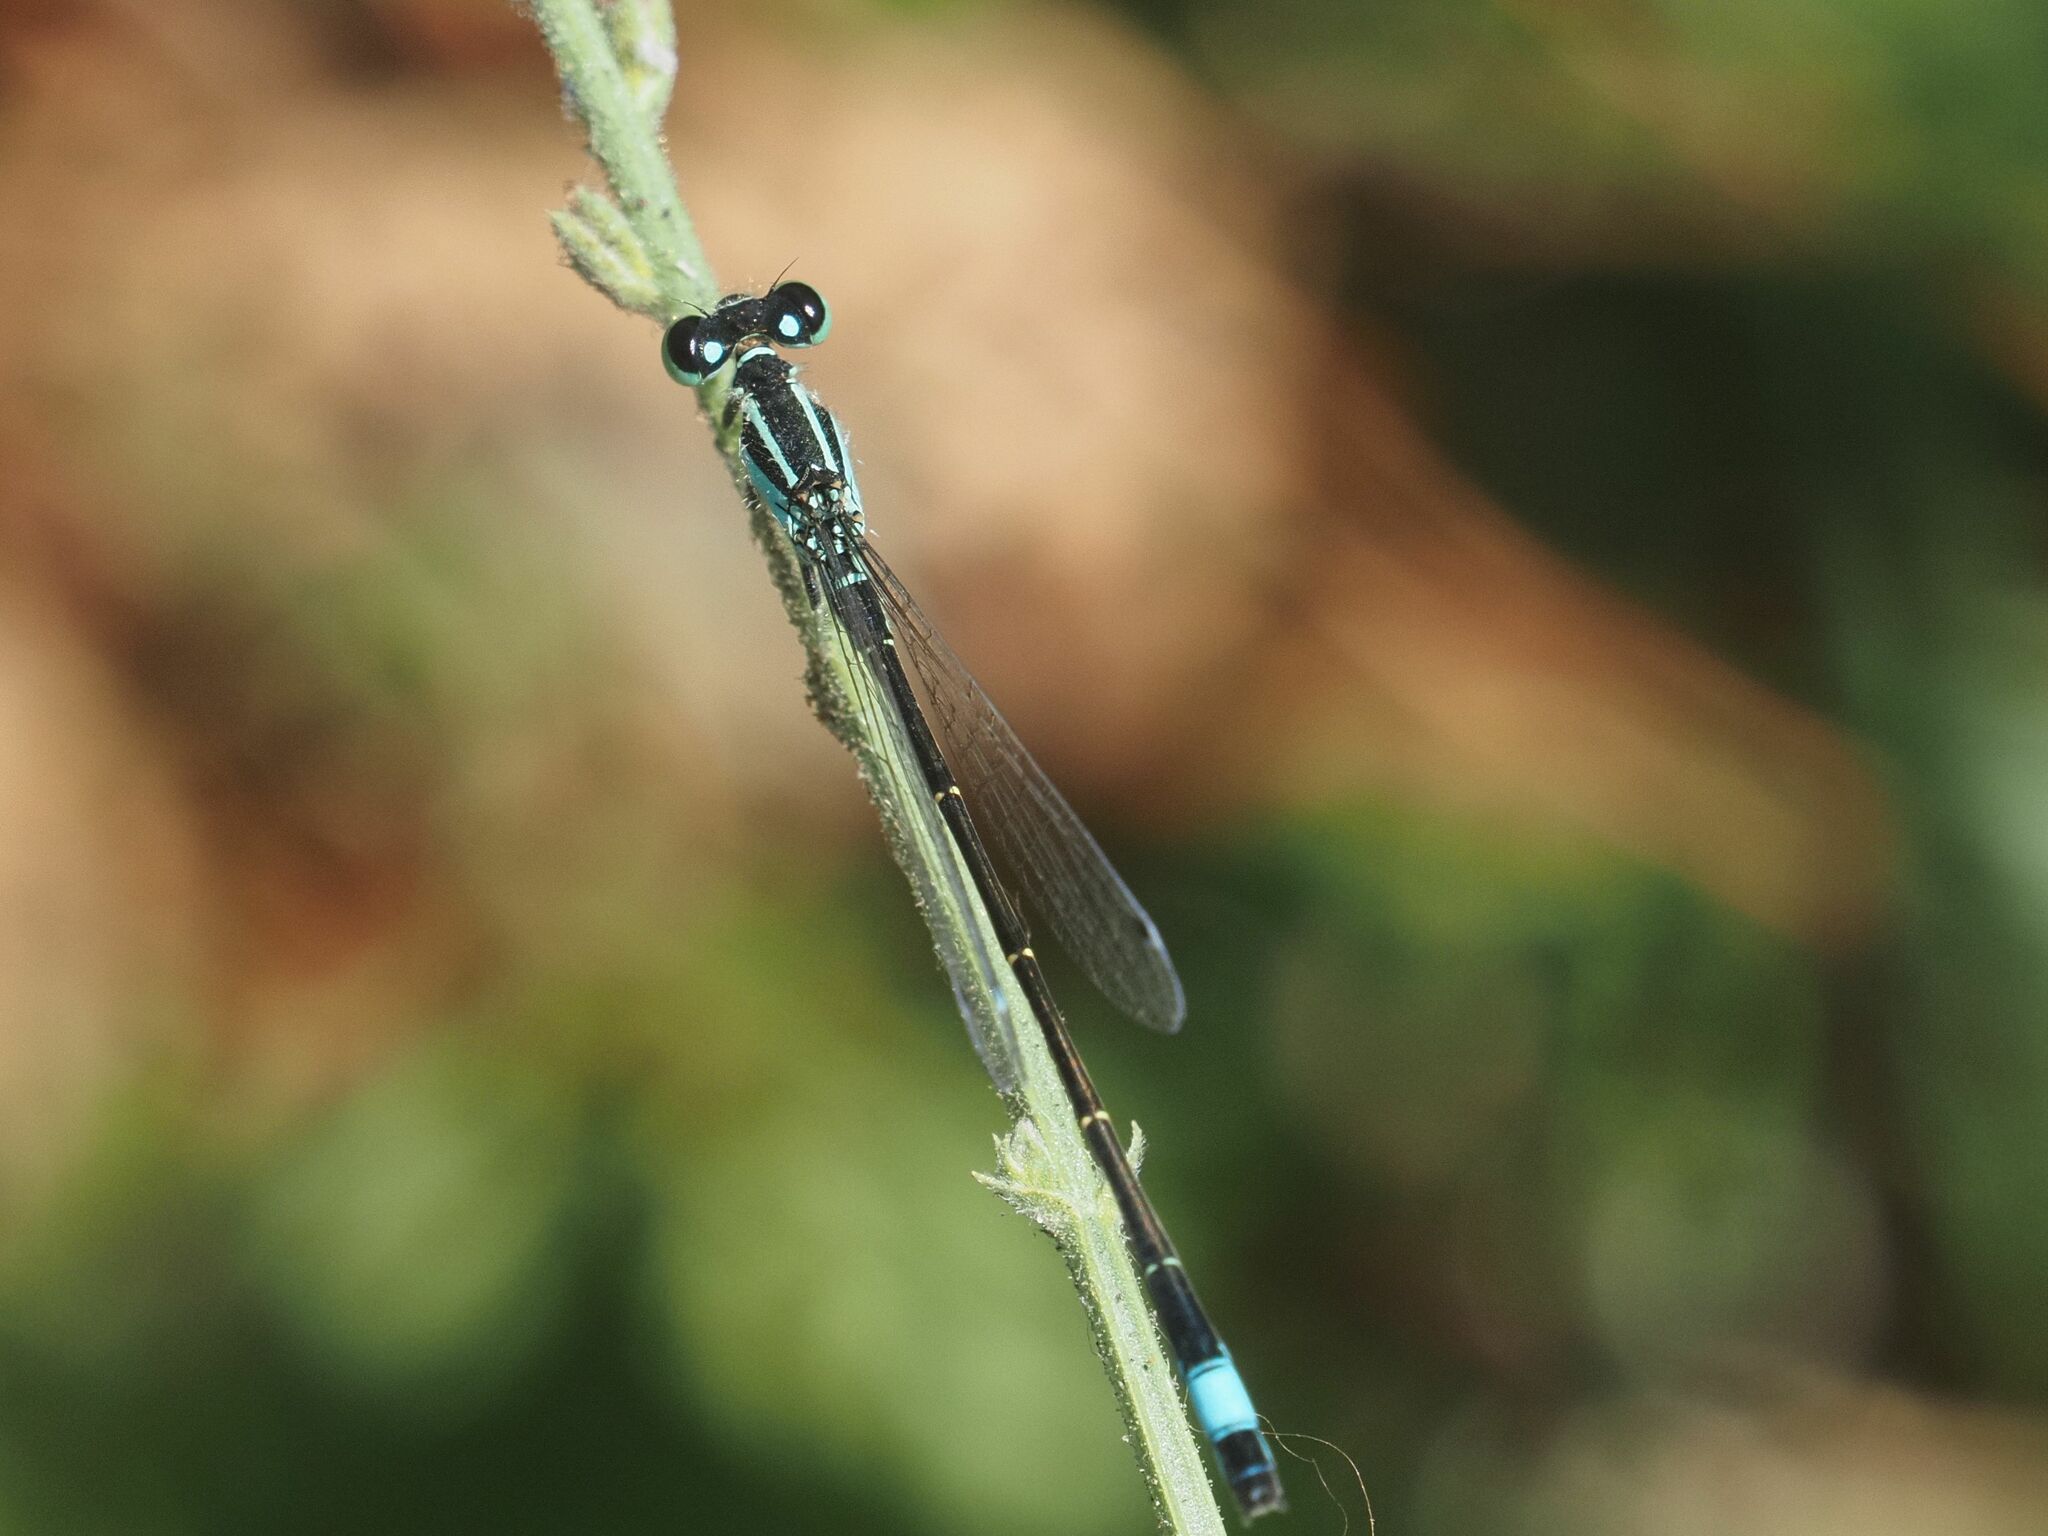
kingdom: Animalia
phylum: Arthropoda
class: Insecta
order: Odonata
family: Coenagrionidae
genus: Ischnura
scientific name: Ischnura elegans
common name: Blue-tailed damselfly
